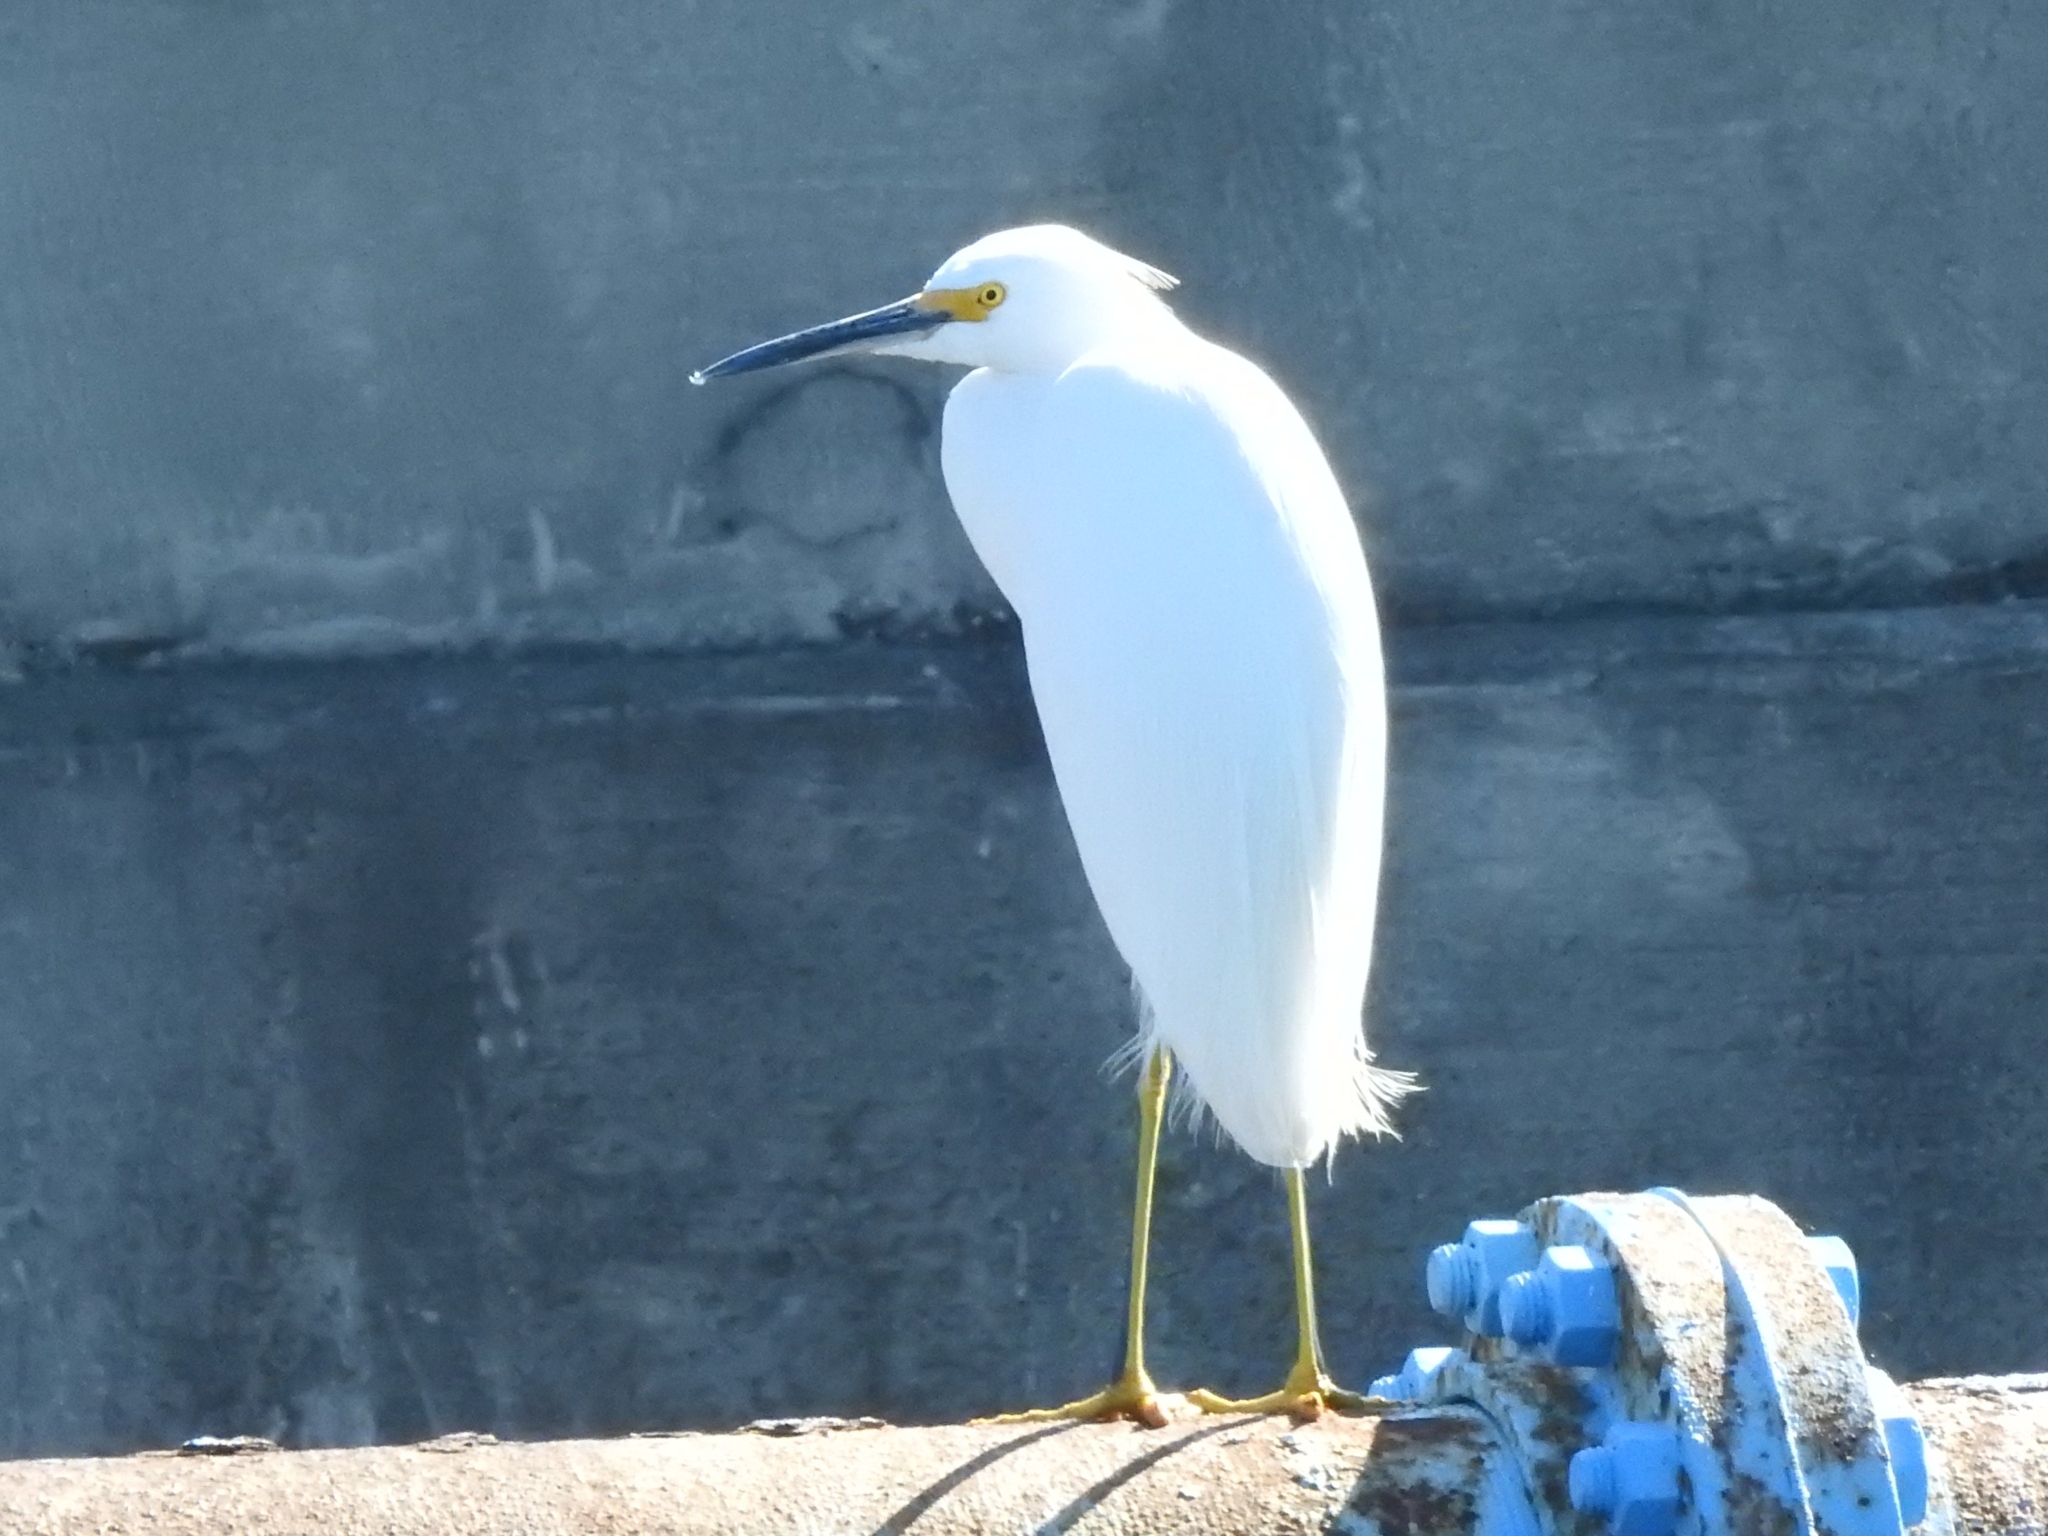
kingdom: Animalia
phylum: Chordata
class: Aves
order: Pelecaniformes
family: Ardeidae
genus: Egretta
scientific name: Egretta thula
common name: Snowy egret
